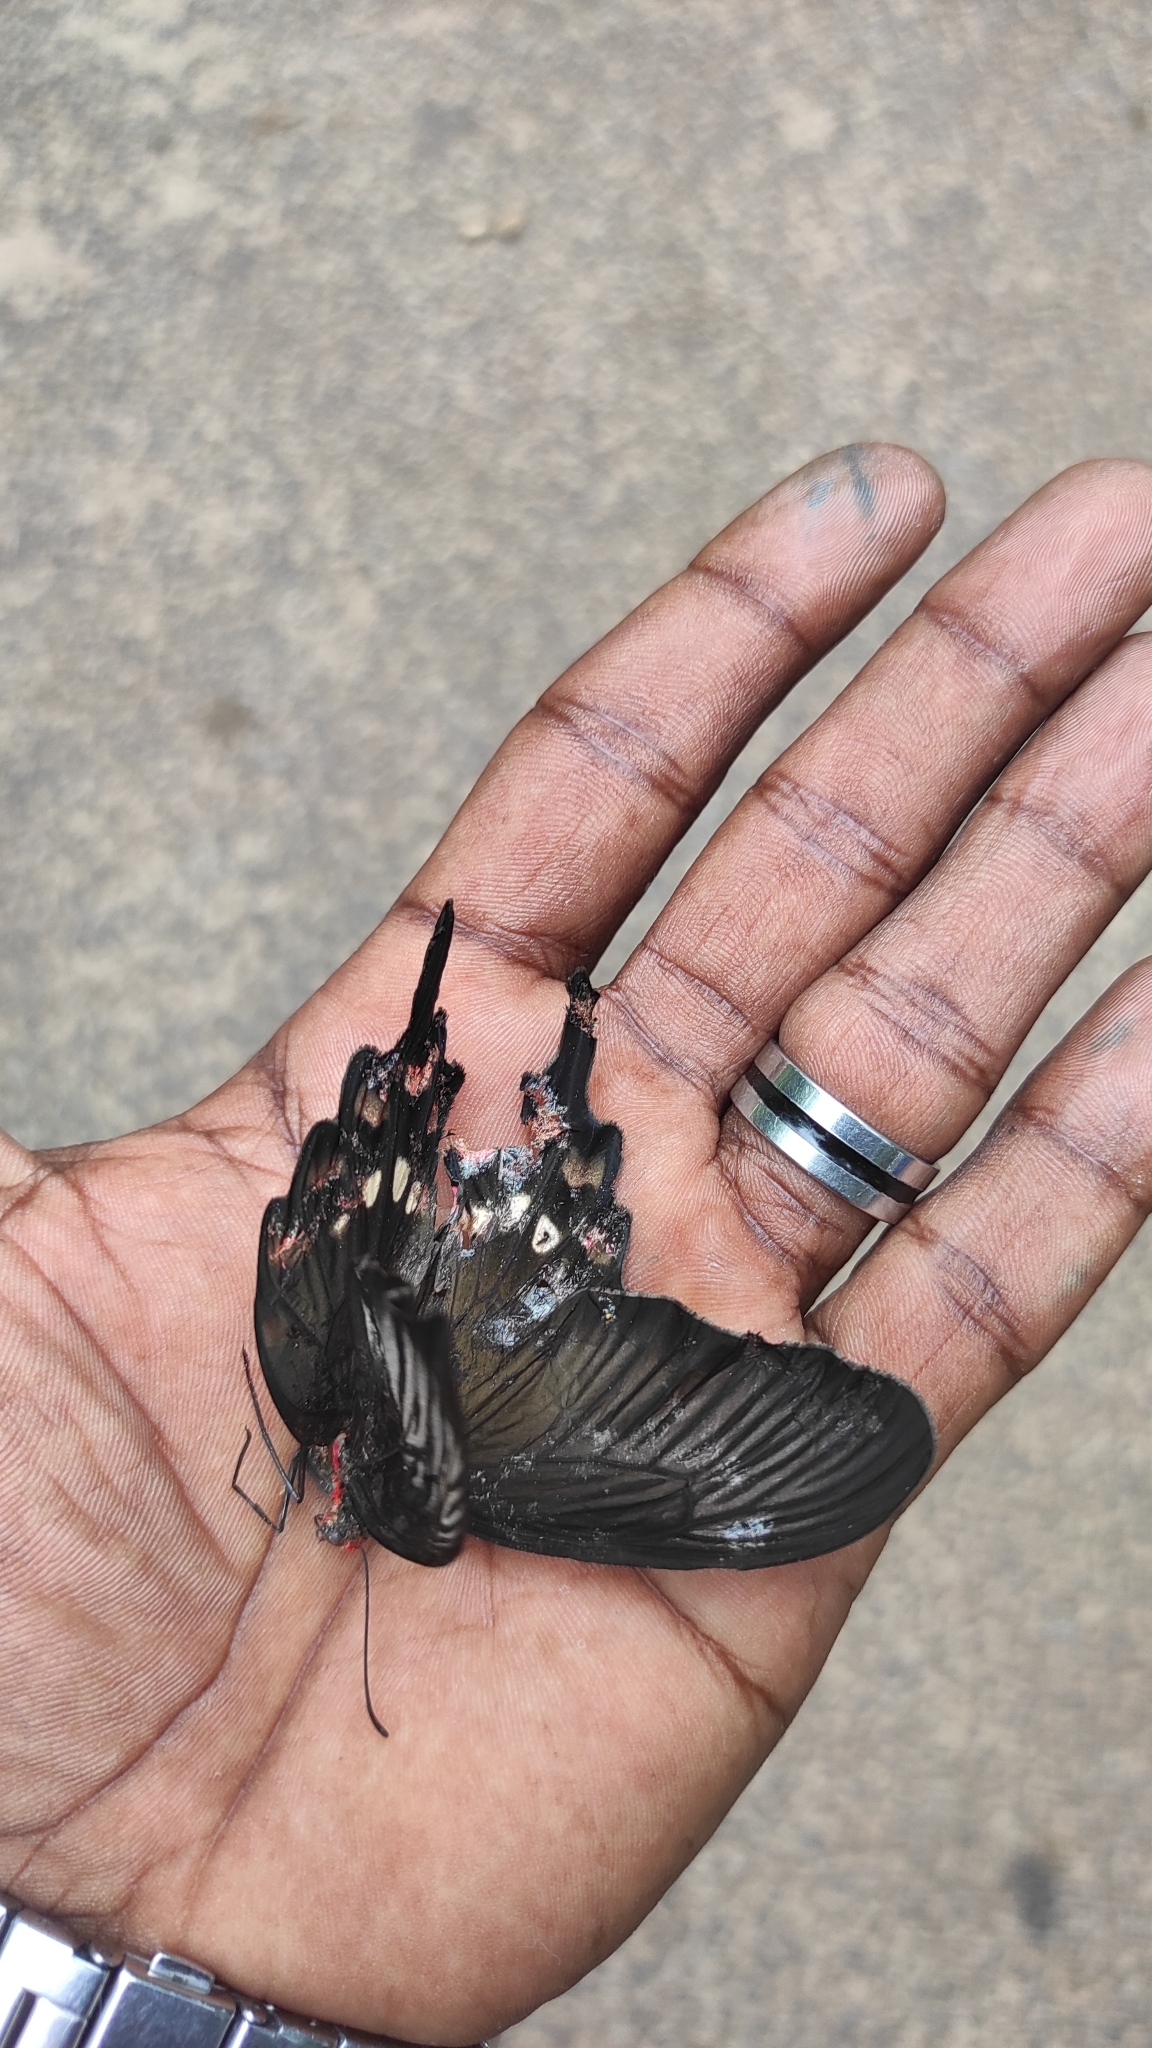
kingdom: Animalia
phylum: Arthropoda
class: Insecta
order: Lepidoptera
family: Papilionidae
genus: Pachliopta
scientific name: Pachliopta aristolochiae
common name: Common rose
